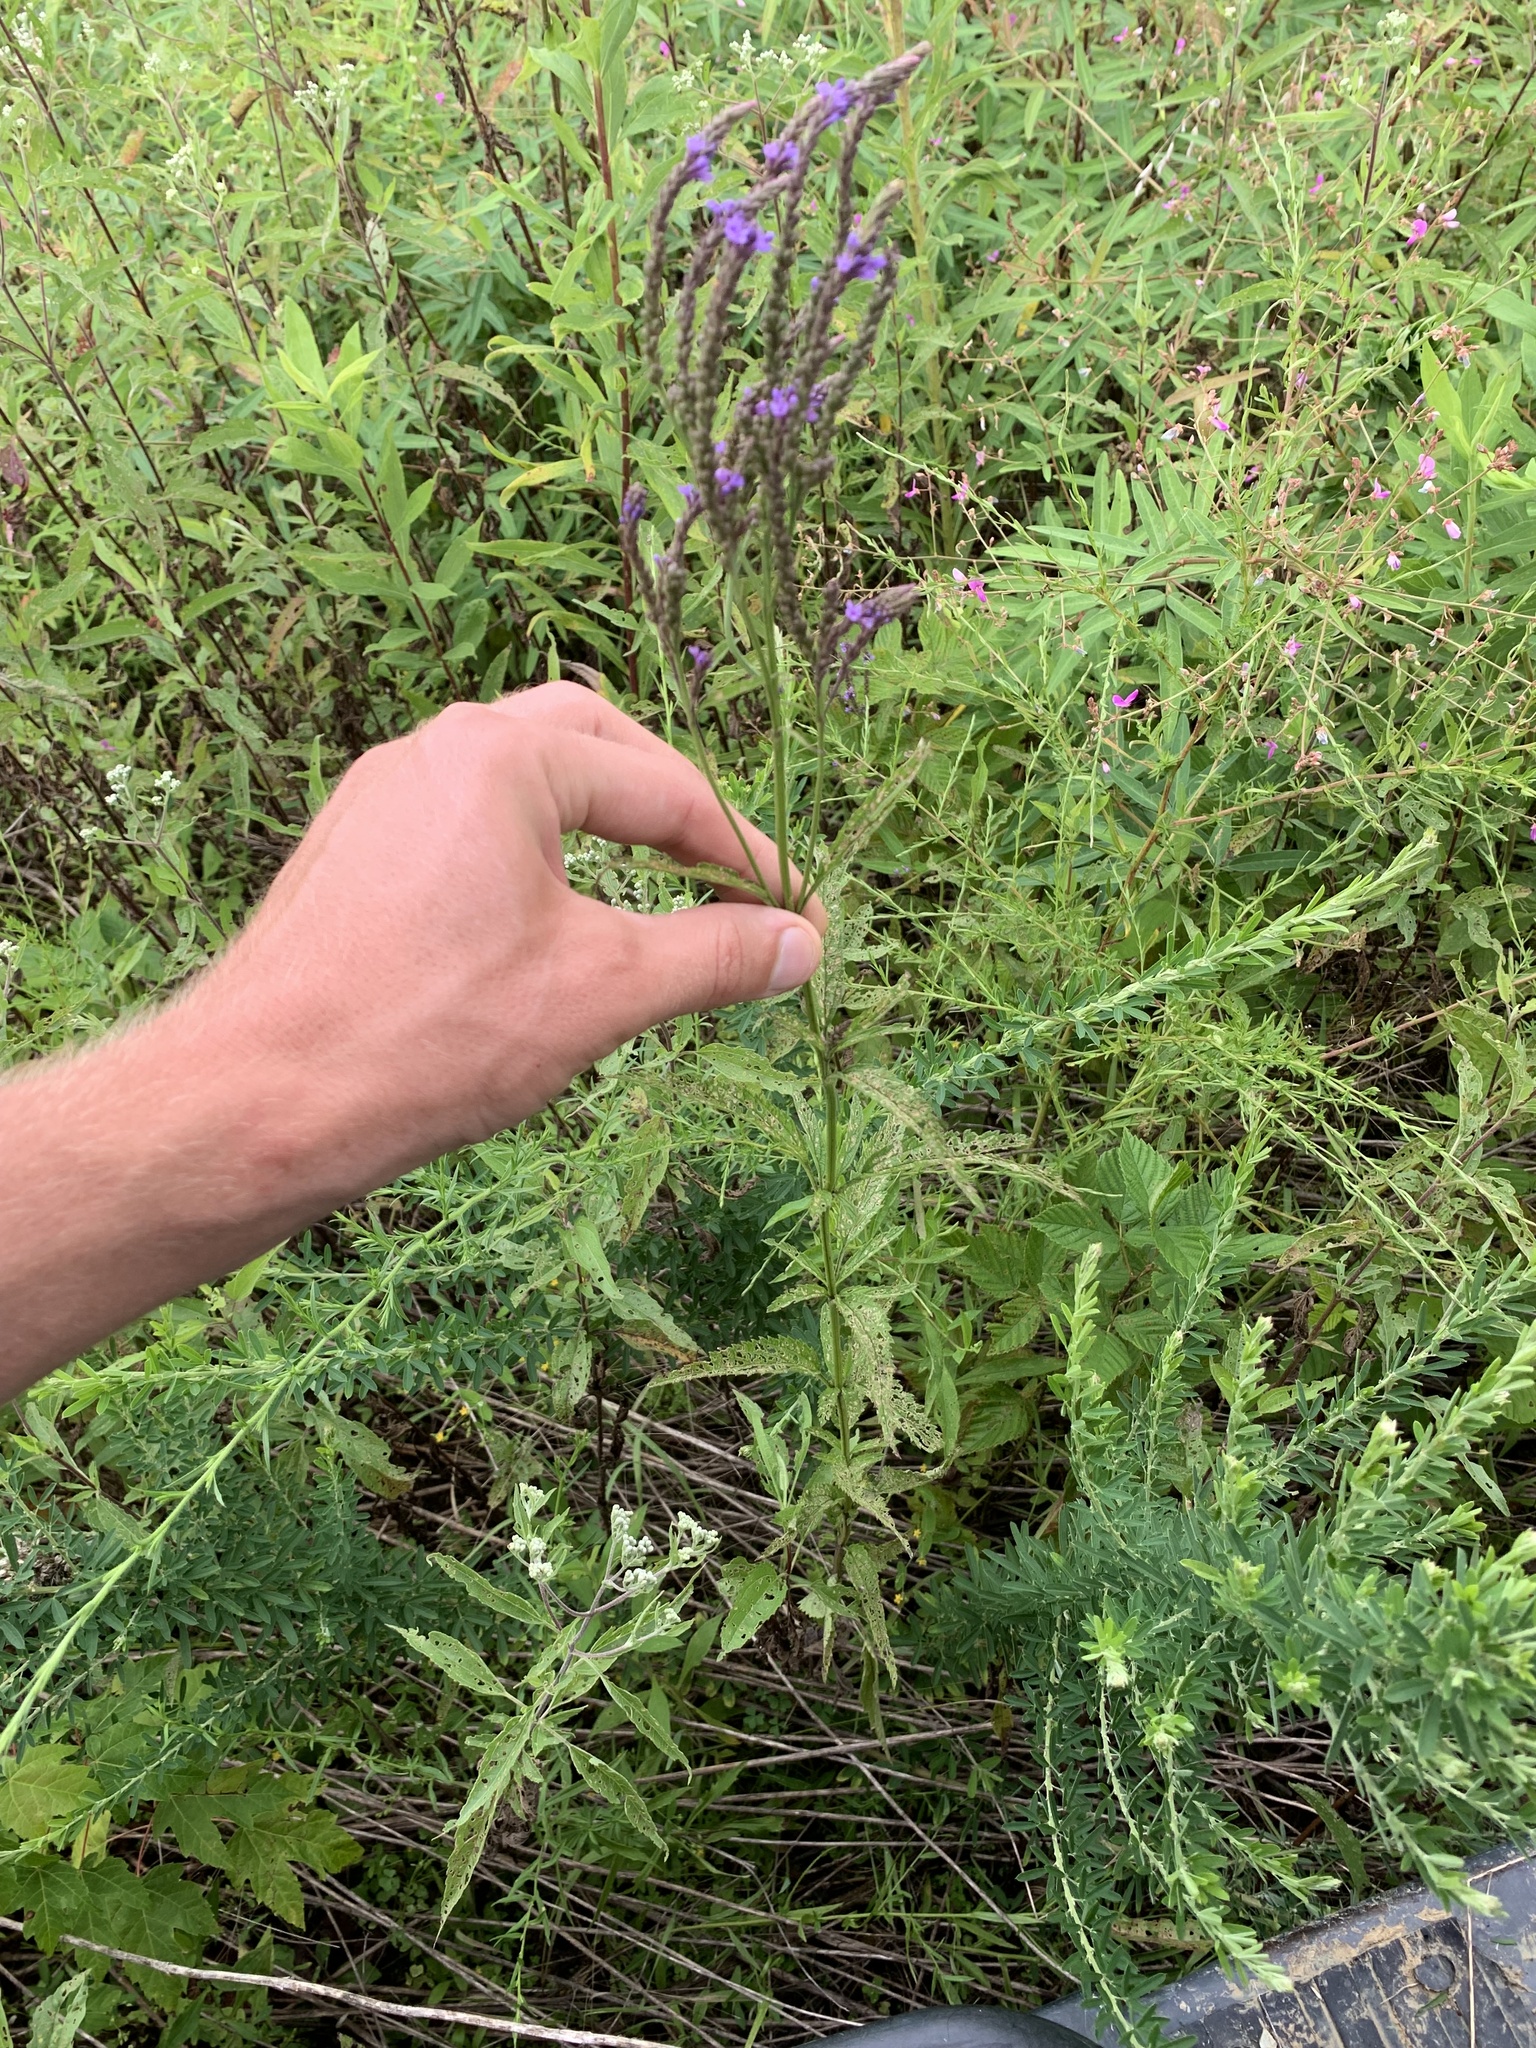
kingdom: Plantae
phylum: Tracheophyta
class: Magnoliopsida
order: Lamiales
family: Verbenaceae
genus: Verbena
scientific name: Verbena hastata
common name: American blue vervain
